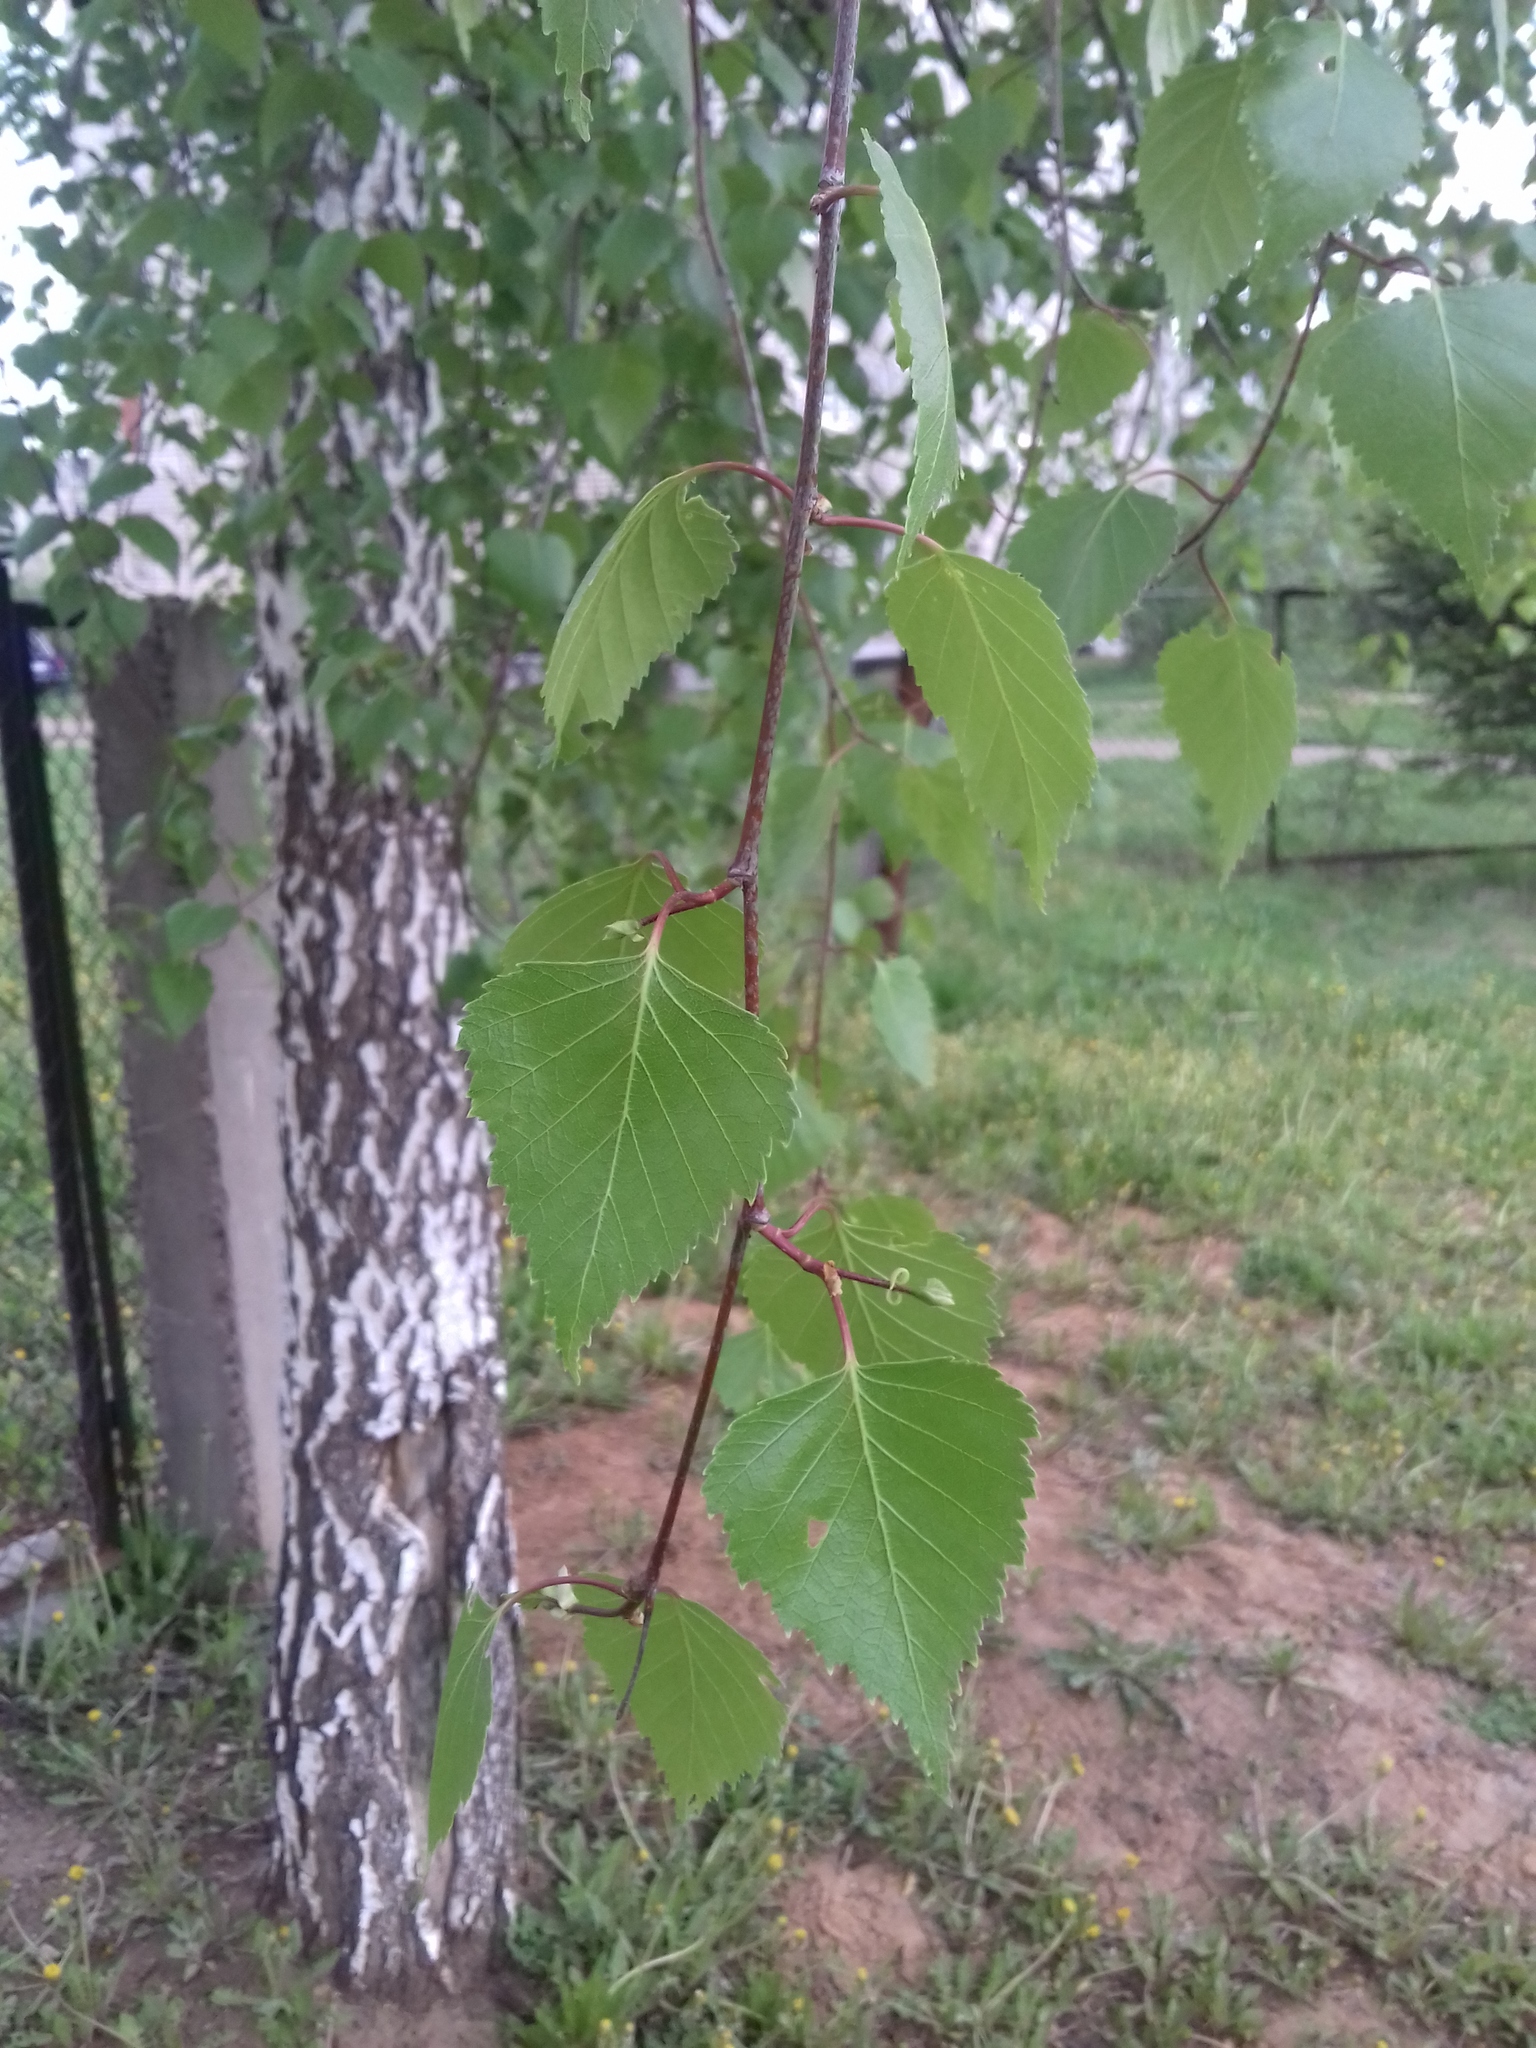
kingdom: Plantae
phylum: Tracheophyta
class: Magnoliopsida
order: Fagales
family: Betulaceae
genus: Betula
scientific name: Betula pendula
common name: Silver birch
